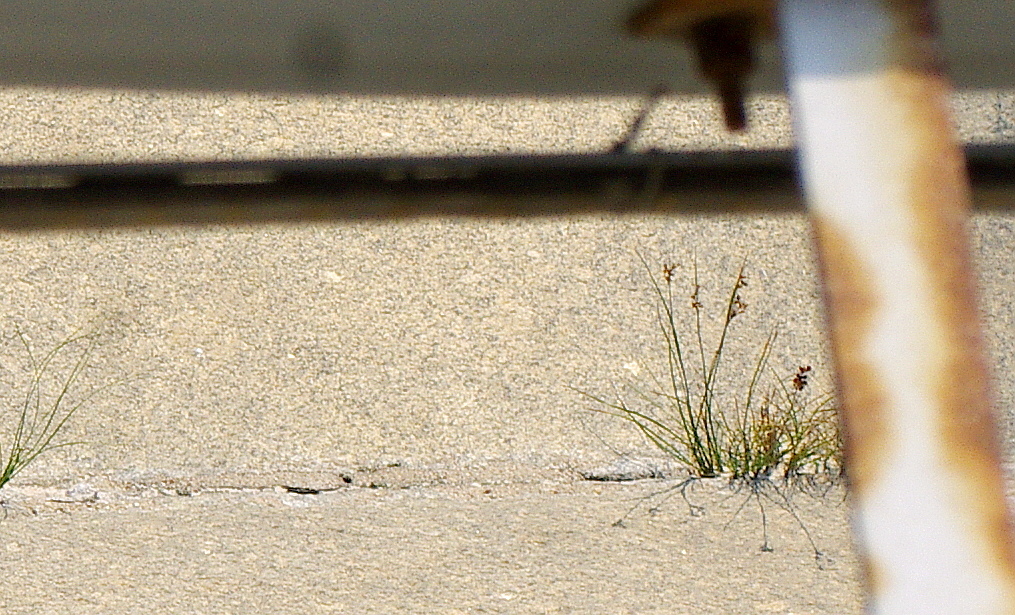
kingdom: Plantae
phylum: Tracheophyta
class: Liliopsida
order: Poales
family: Juncaceae
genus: Juncus
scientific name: Juncus compressus
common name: Round-fruited rush
